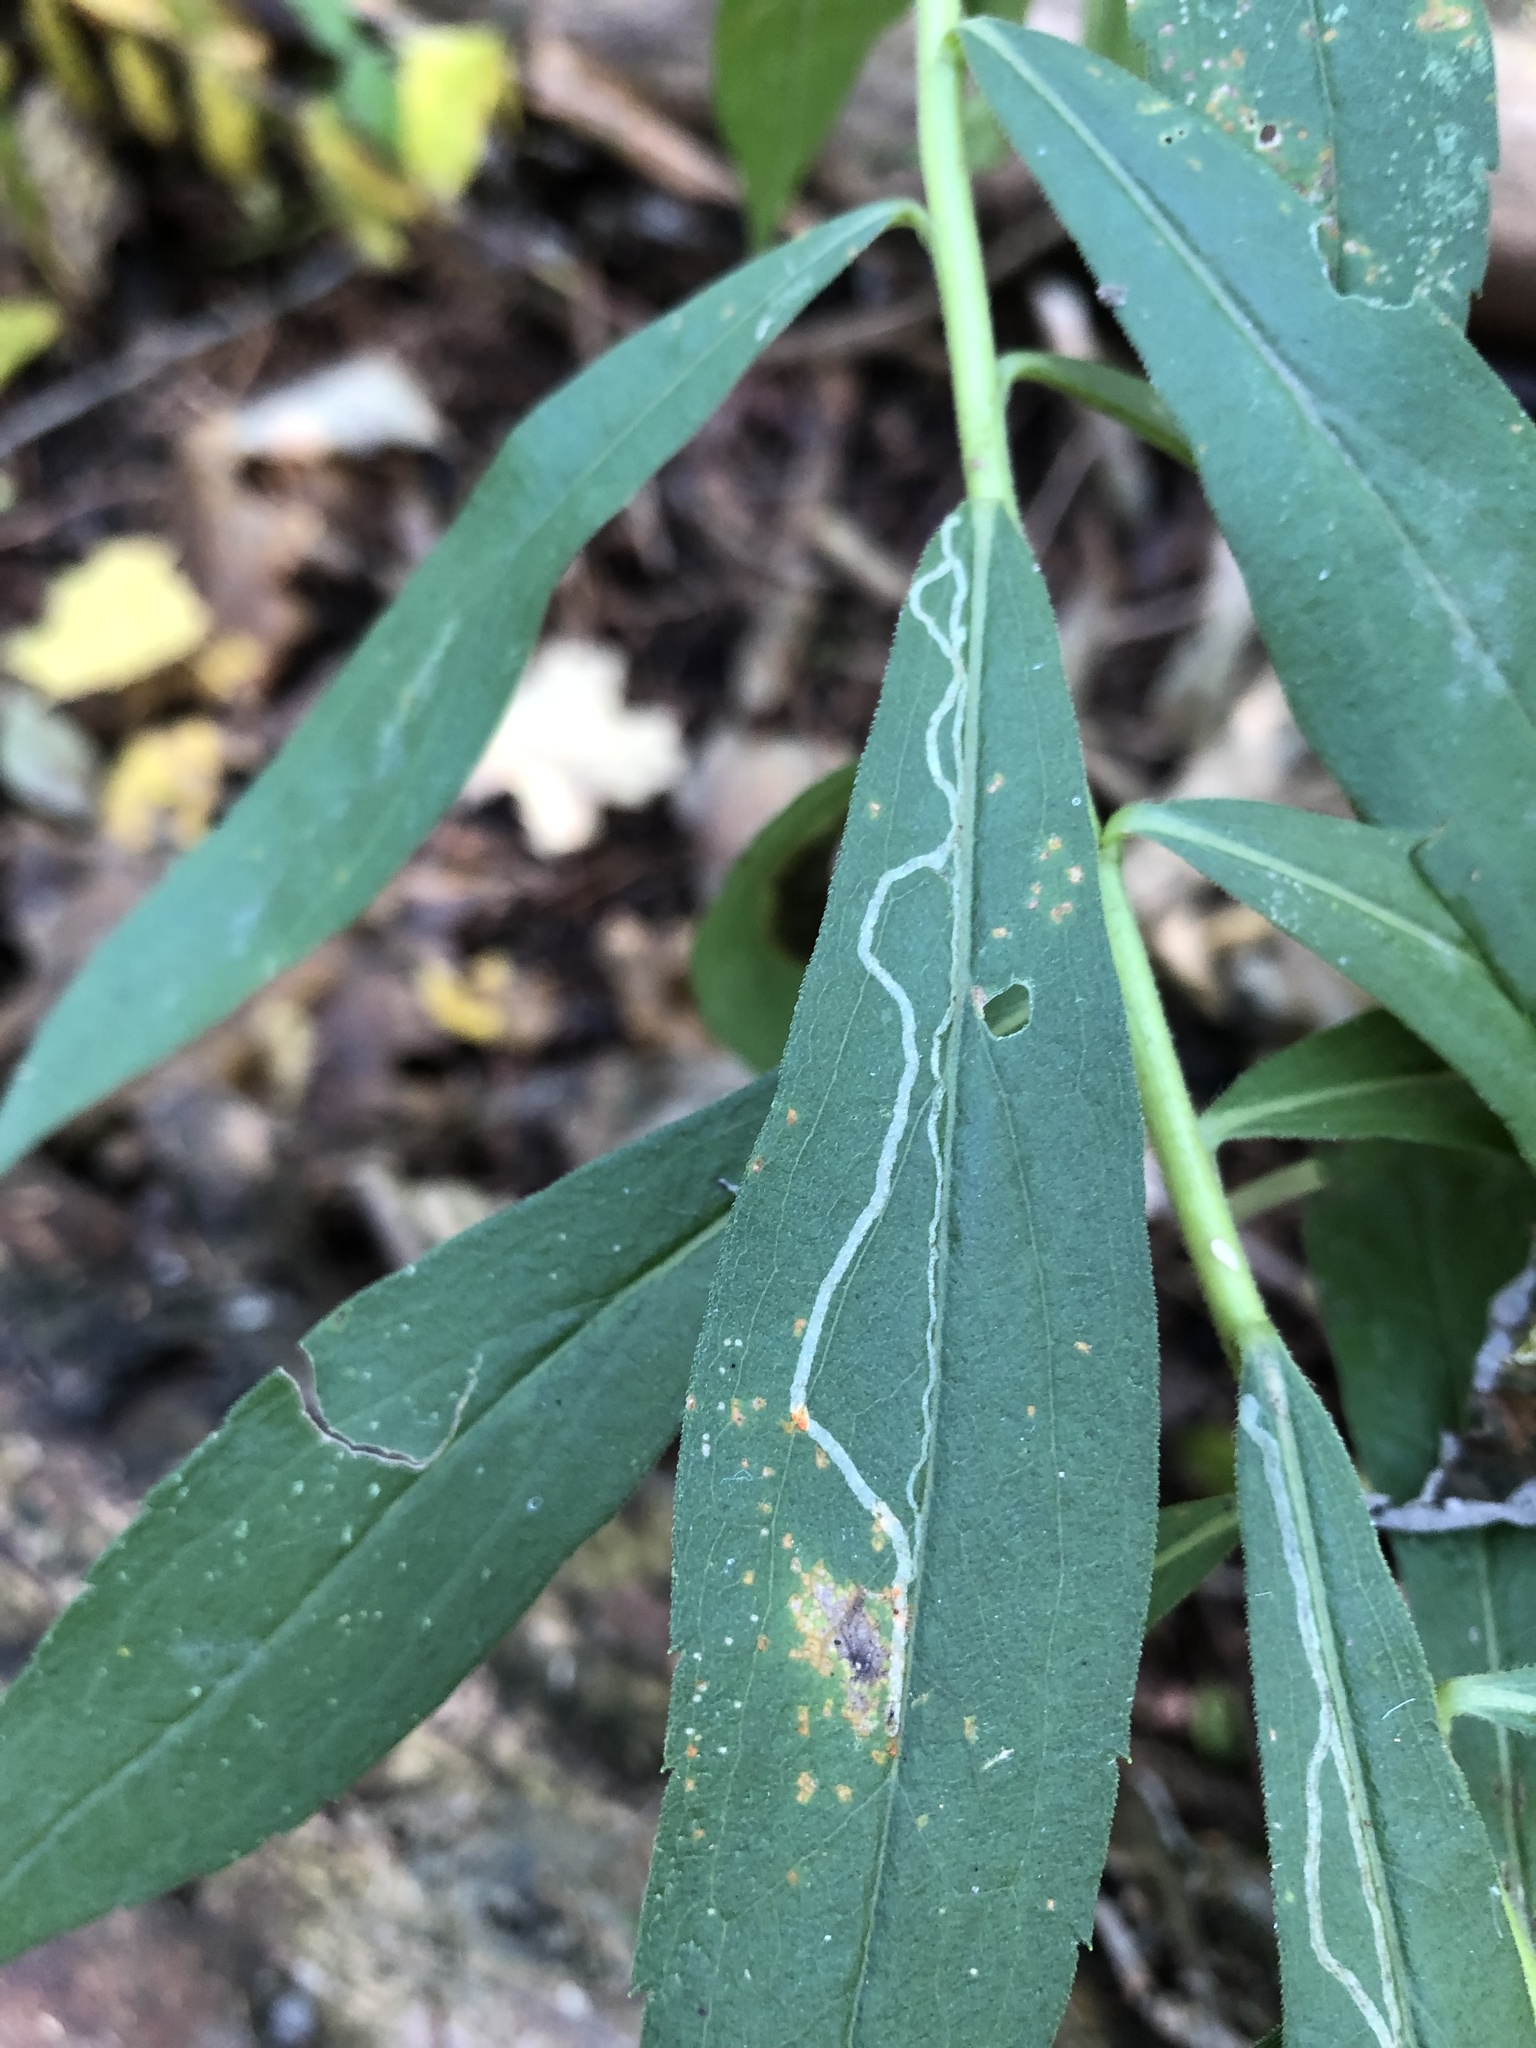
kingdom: Animalia
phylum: Arthropoda
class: Insecta
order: Diptera
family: Agromyzidae
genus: Ophiomyia
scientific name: Ophiomyia maura
